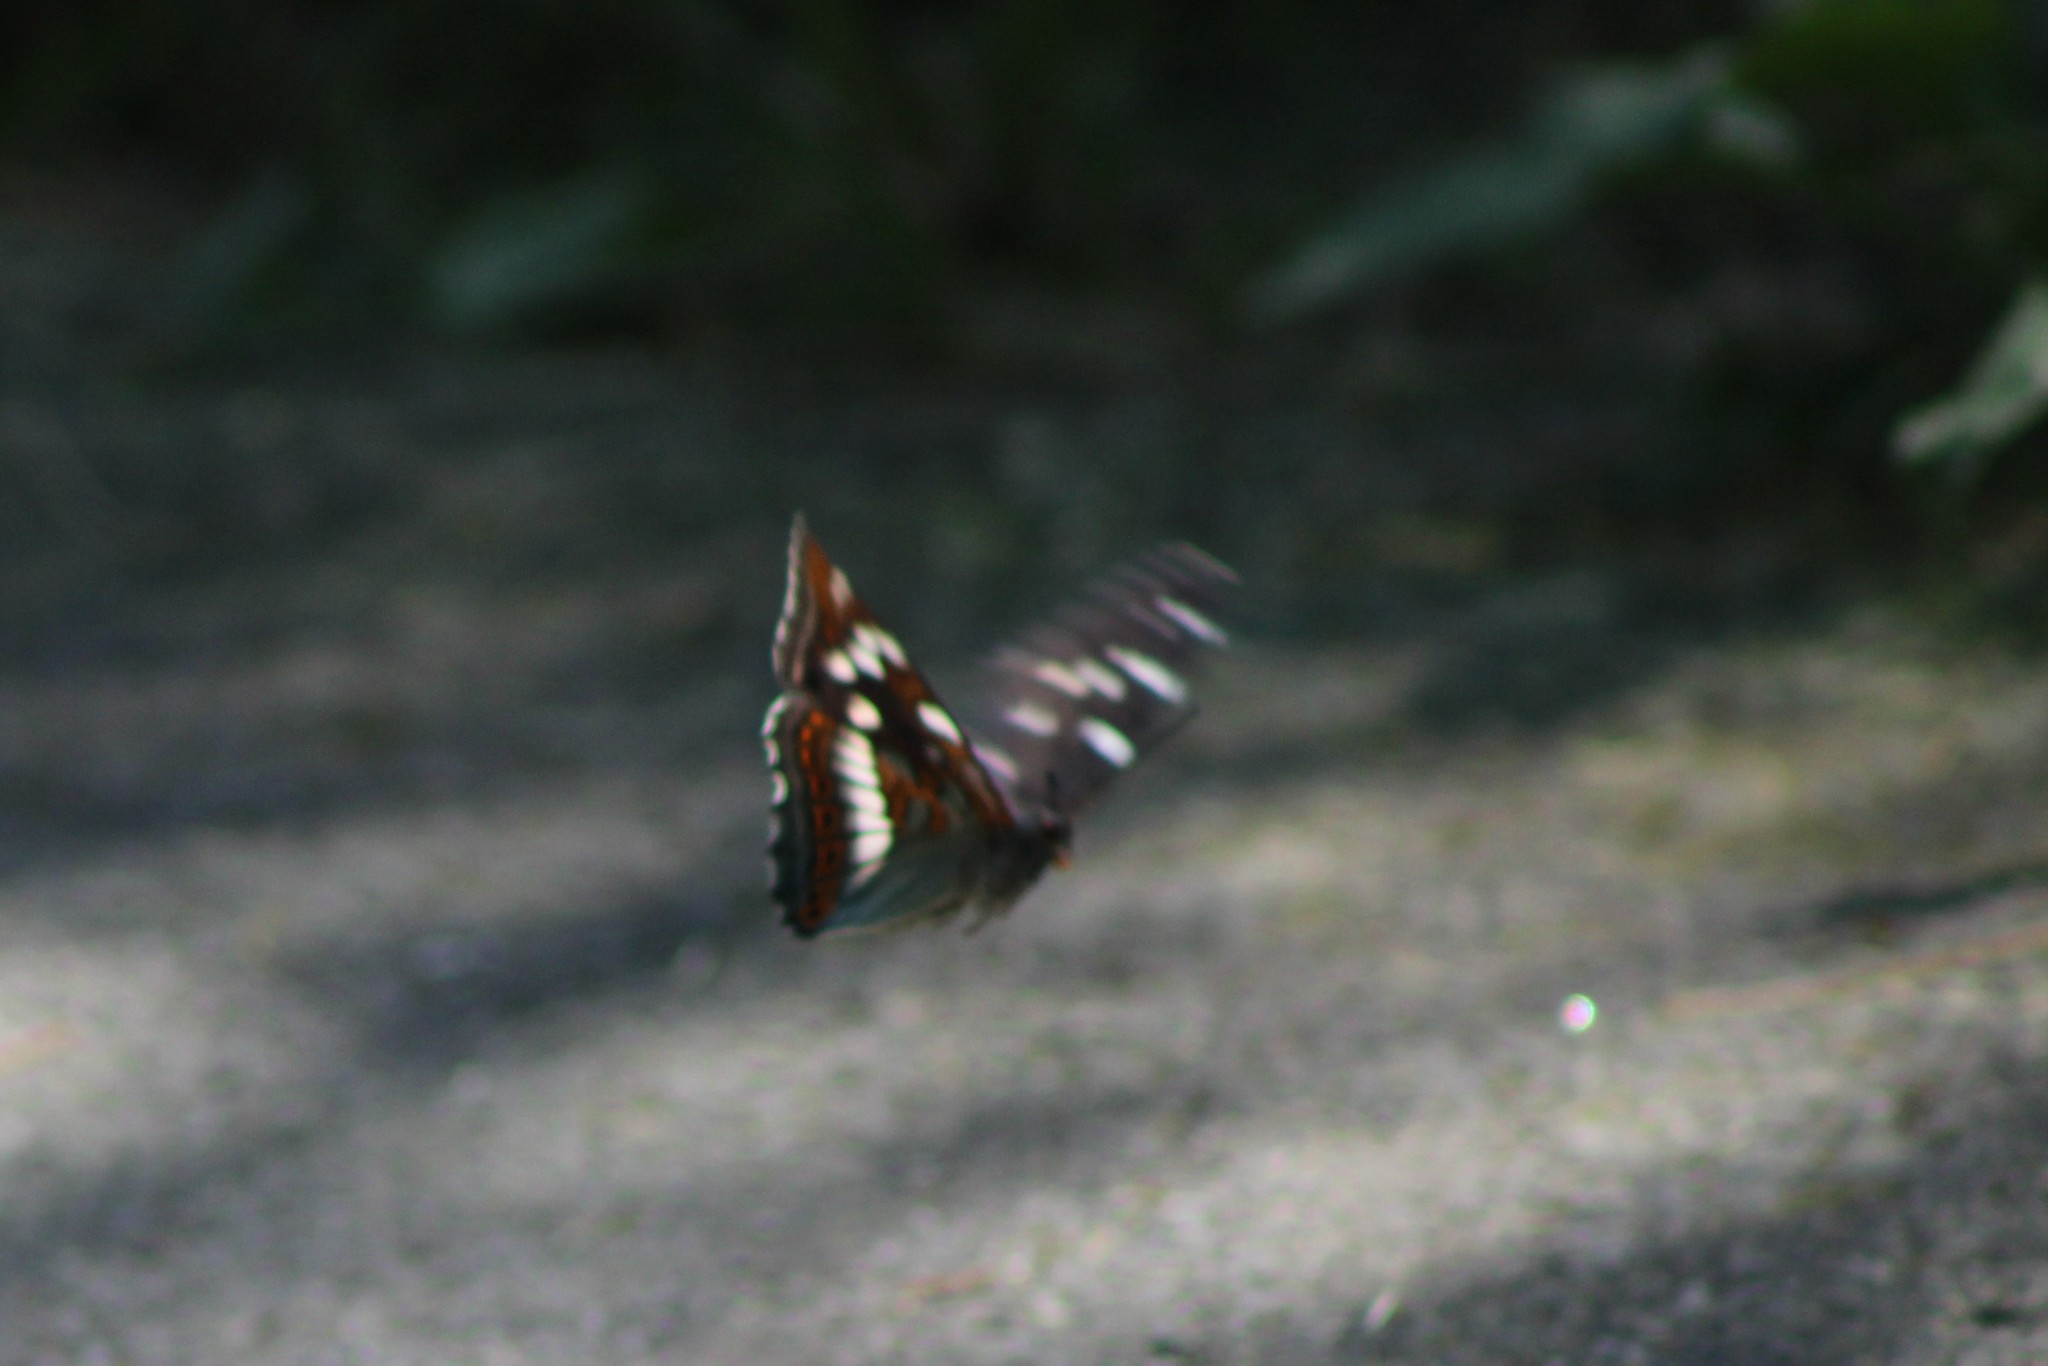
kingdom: Animalia
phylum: Arthropoda
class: Insecta
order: Lepidoptera
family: Nymphalidae
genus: Limenitis
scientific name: Limenitis populi
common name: Poplar admiral
